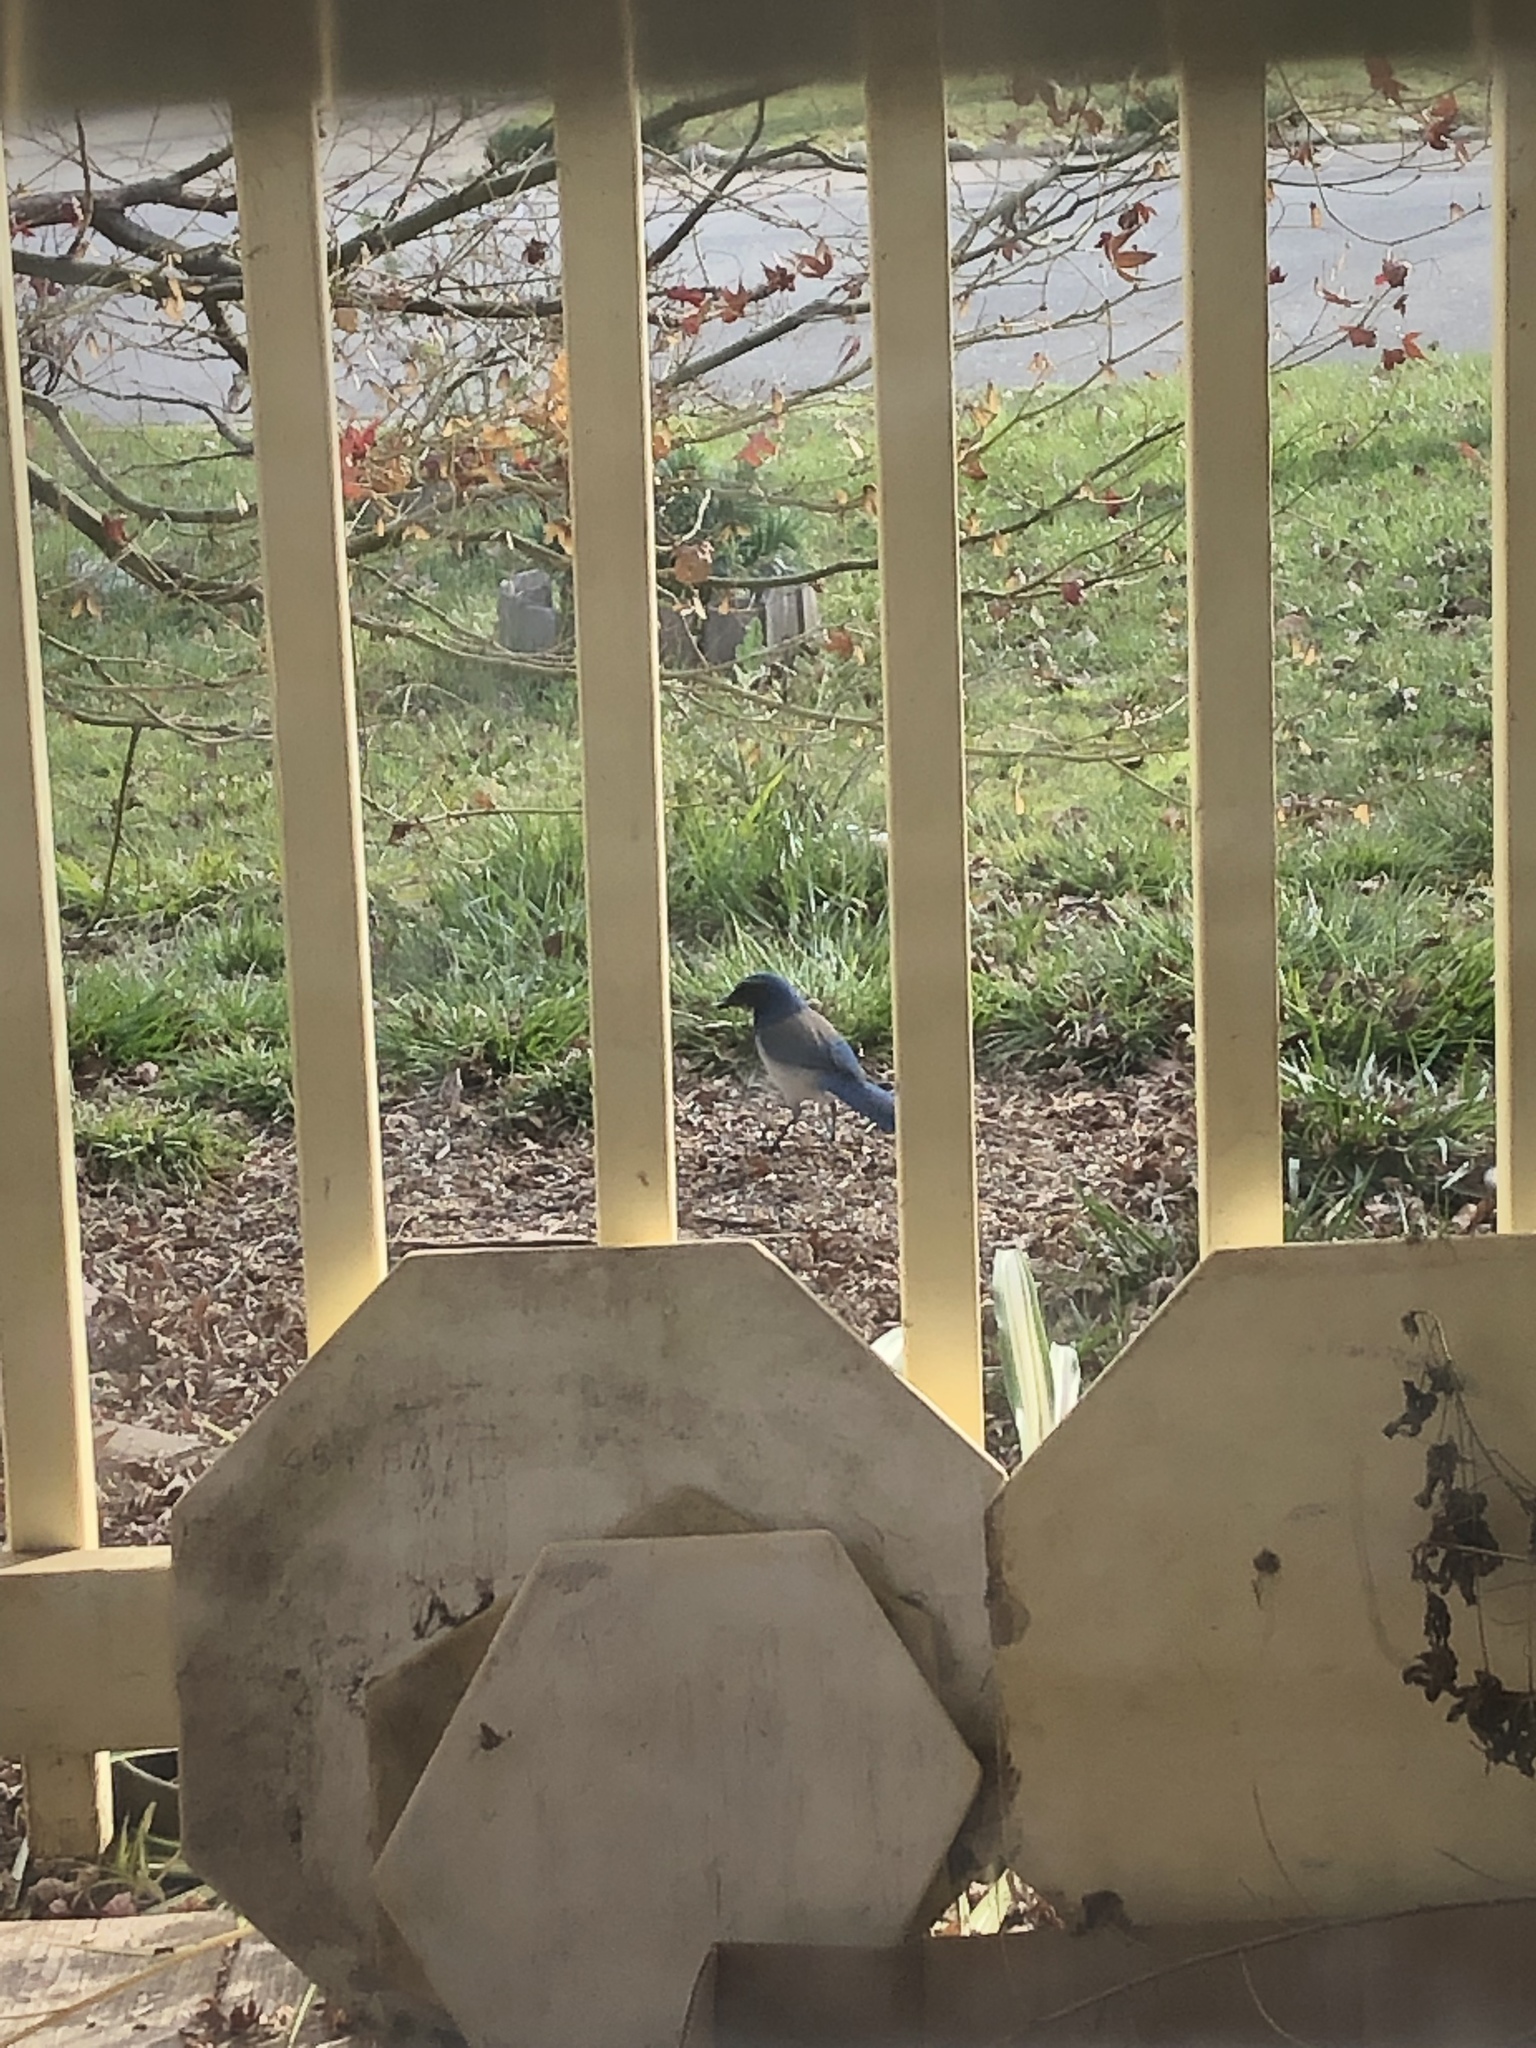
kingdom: Animalia
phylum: Chordata
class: Aves
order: Passeriformes
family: Corvidae
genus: Aphelocoma
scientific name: Aphelocoma californica
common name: California scrub-jay
